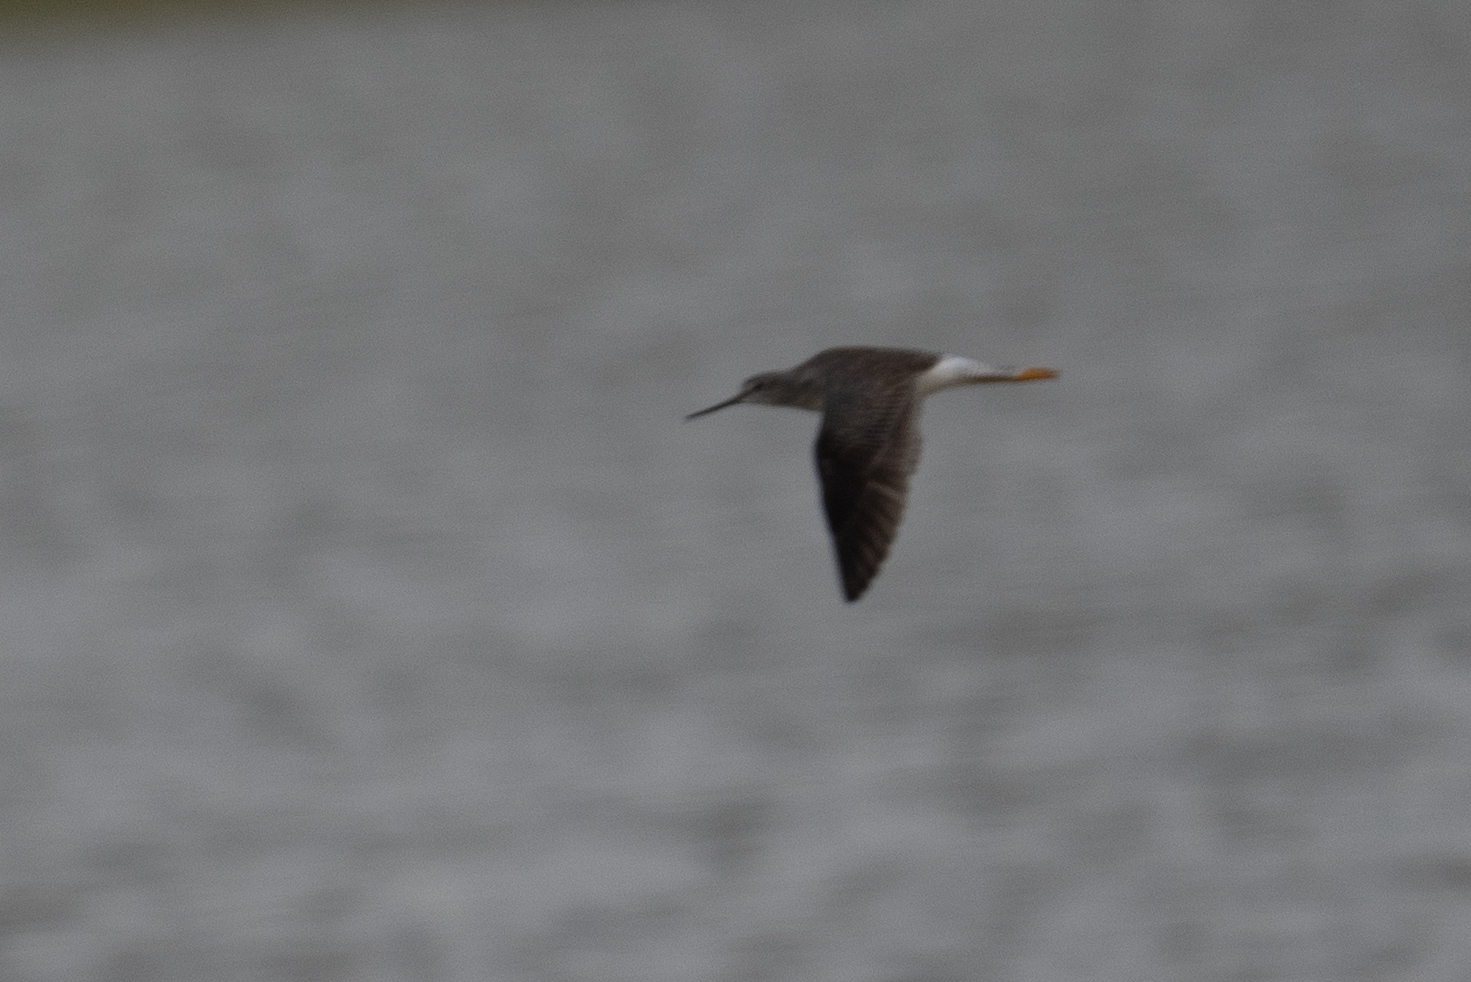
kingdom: Animalia
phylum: Chordata
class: Aves
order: Charadriiformes
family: Scolopacidae
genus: Tringa
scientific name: Tringa melanoleuca
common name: Greater yellowlegs
